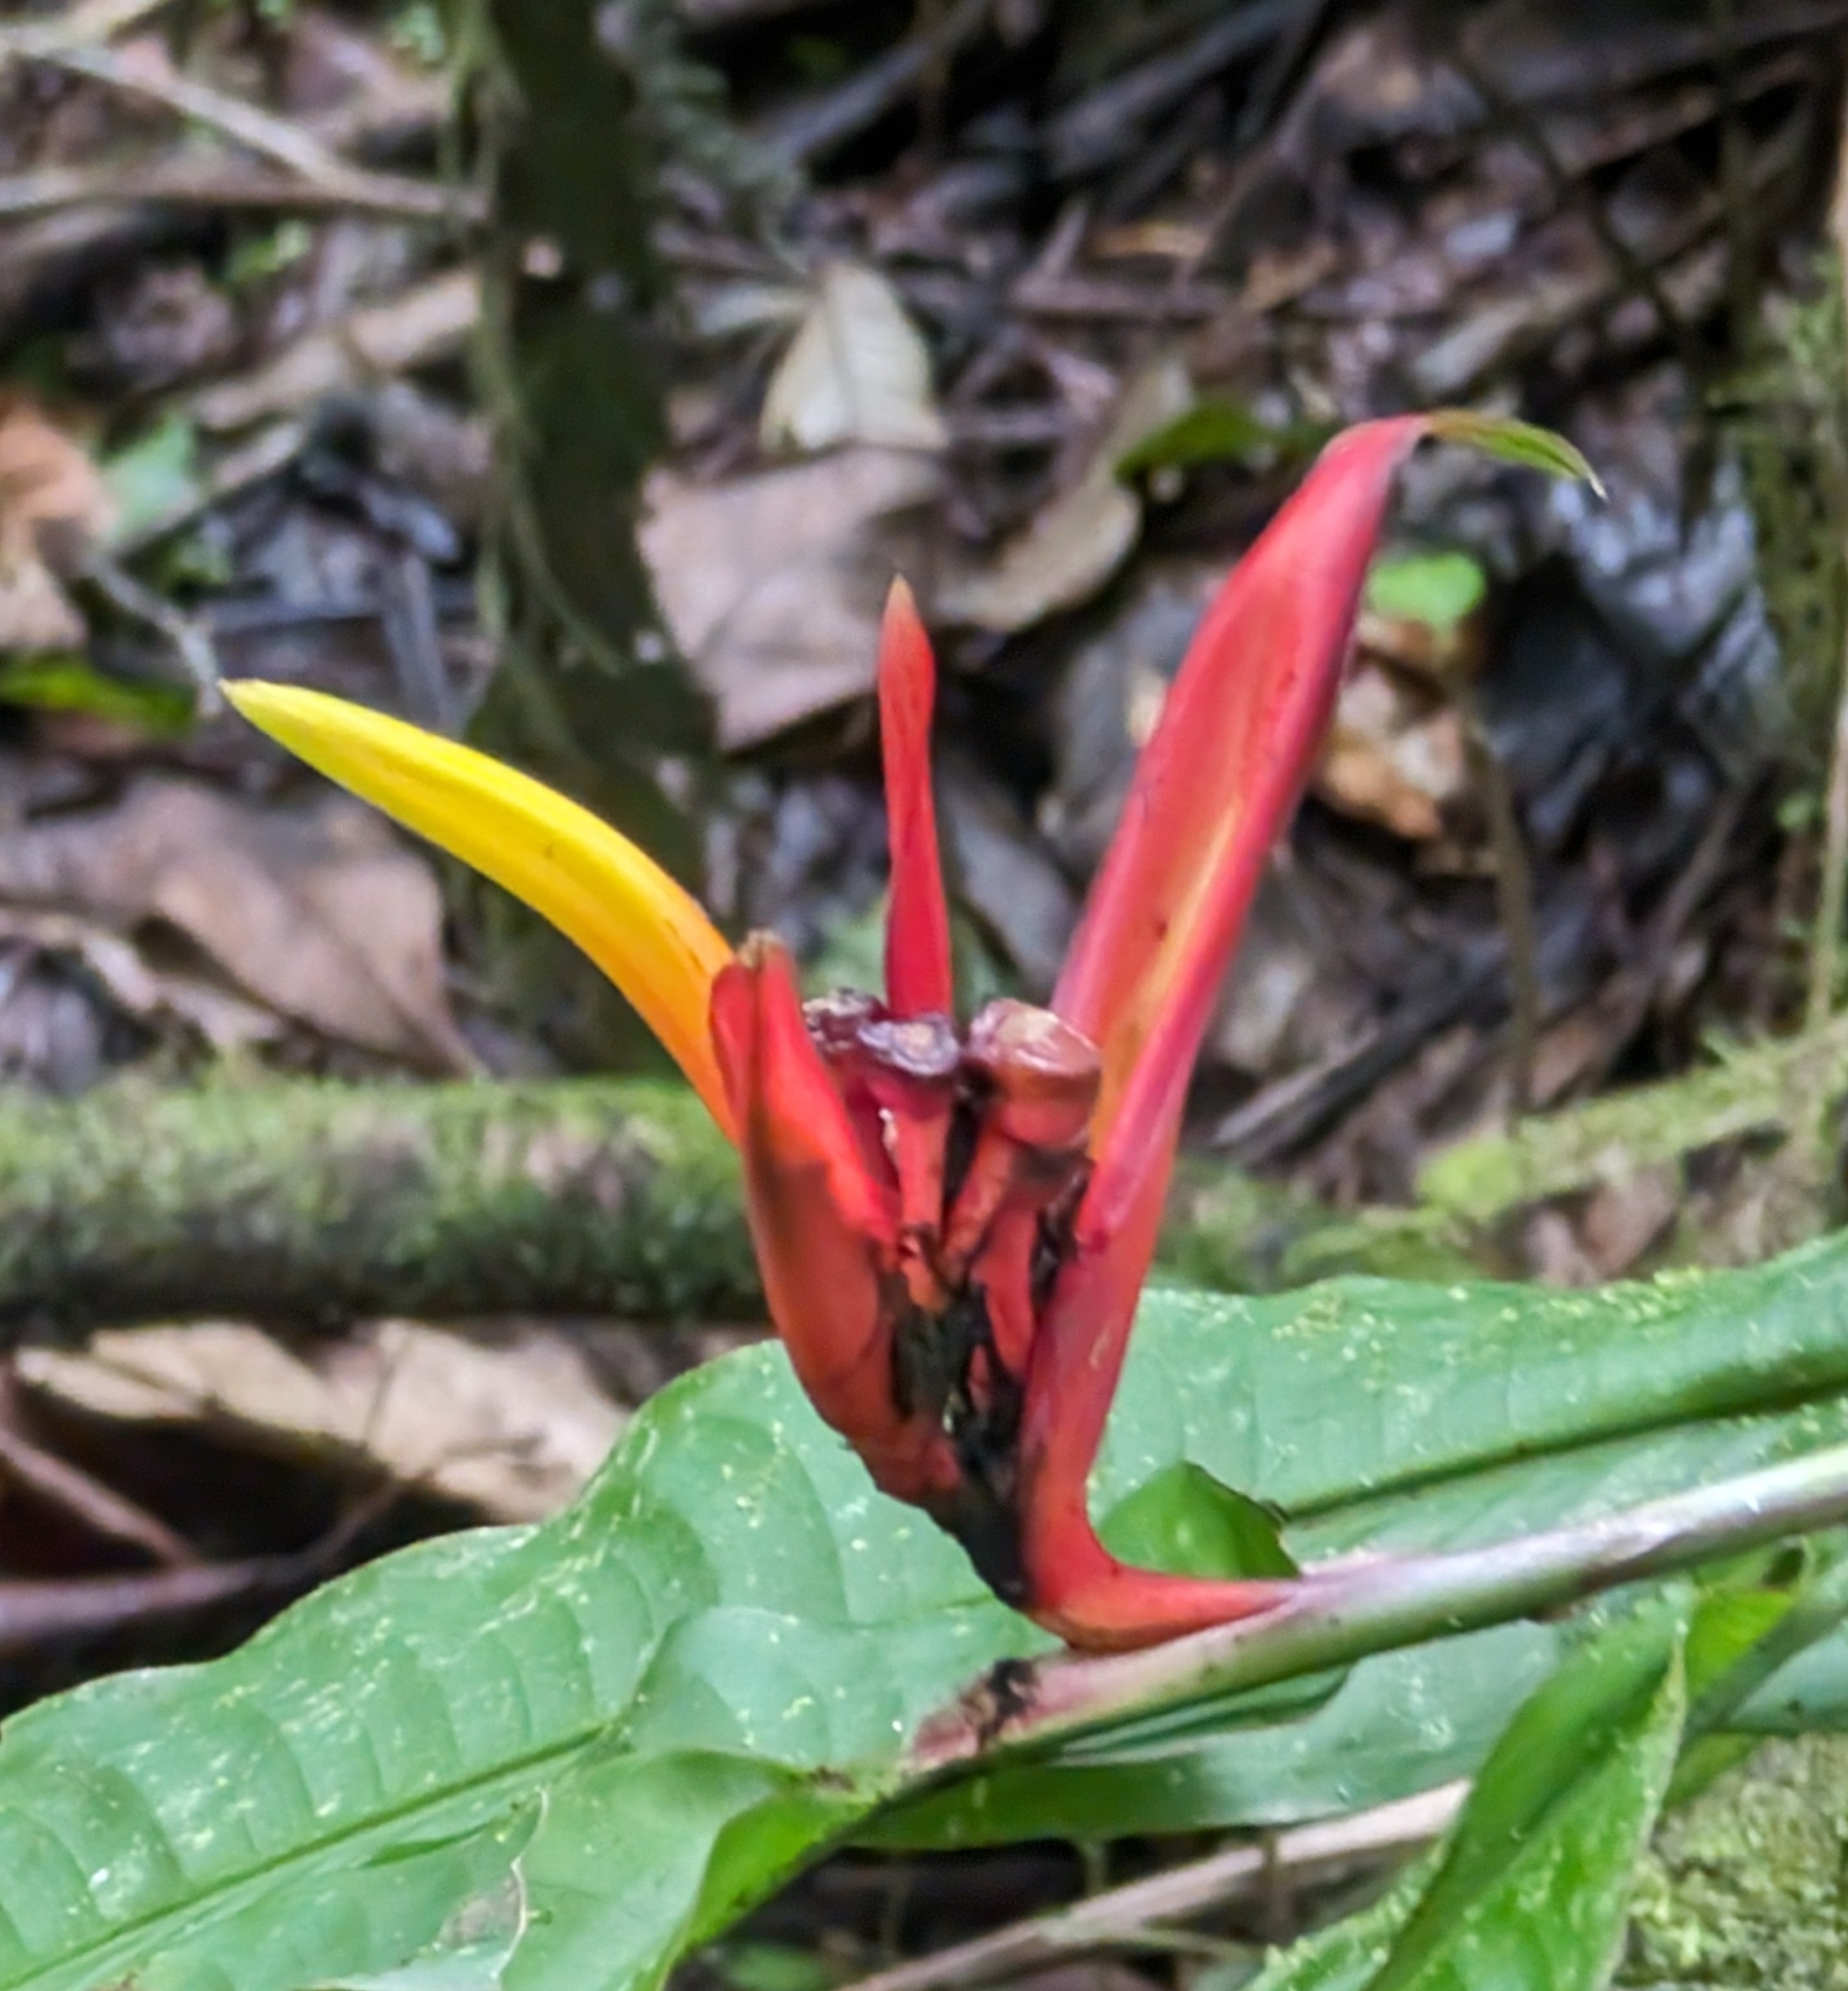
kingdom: Plantae
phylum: Tracheophyta
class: Liliopsida
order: Zingiberales
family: Heliconiaceae
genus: Heliconia
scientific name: Heliconia mathiasiae
